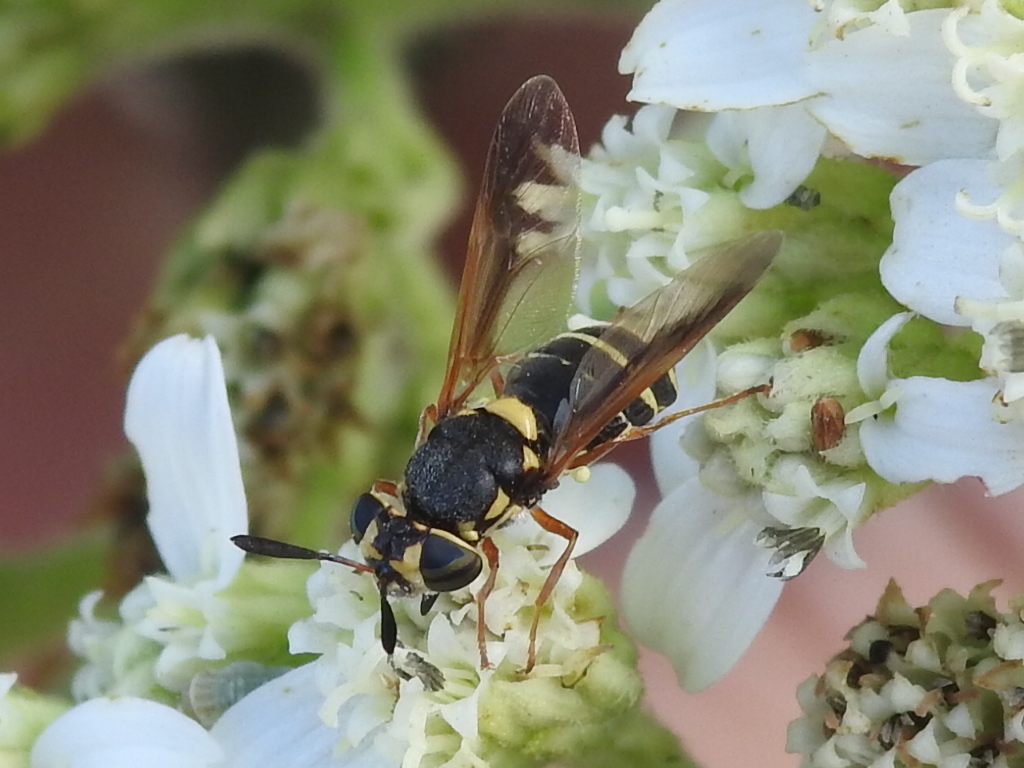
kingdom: Animalia
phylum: Arthropoda
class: Insecta
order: Diptera
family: Stratiomyidae
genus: Hoplitimyia
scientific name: Hoplitimyia constans
